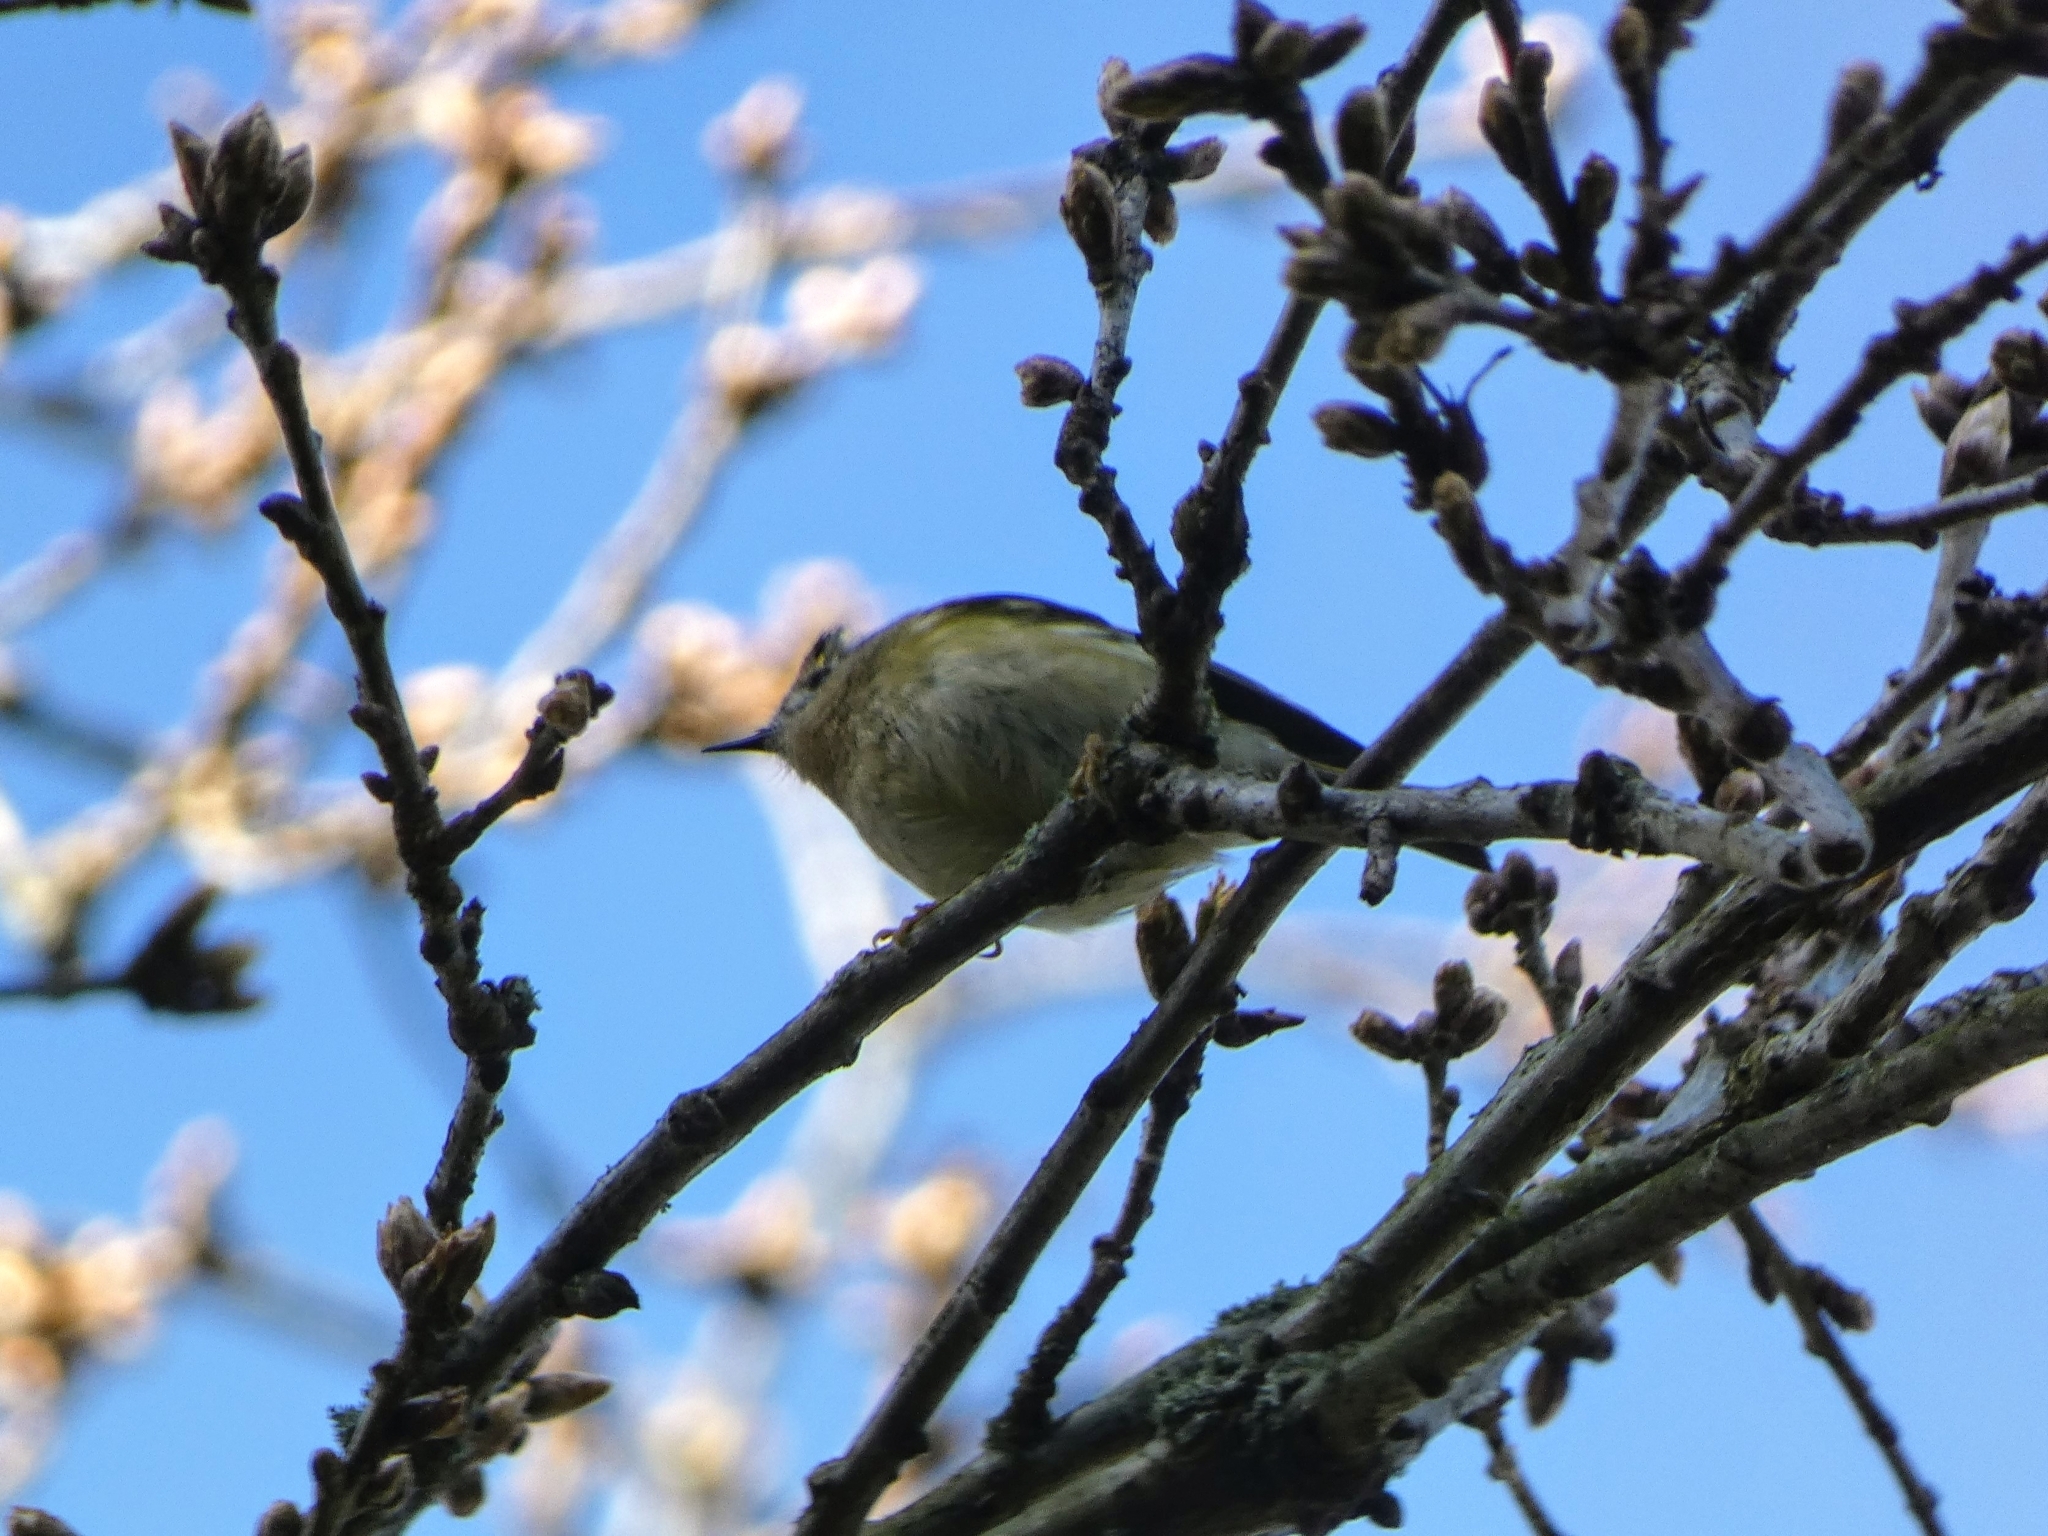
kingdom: Animalia
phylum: Chordata
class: Aves
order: Passeriformes
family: Regulidae
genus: Regulus
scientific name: Regulus regulus
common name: Goldcrest
